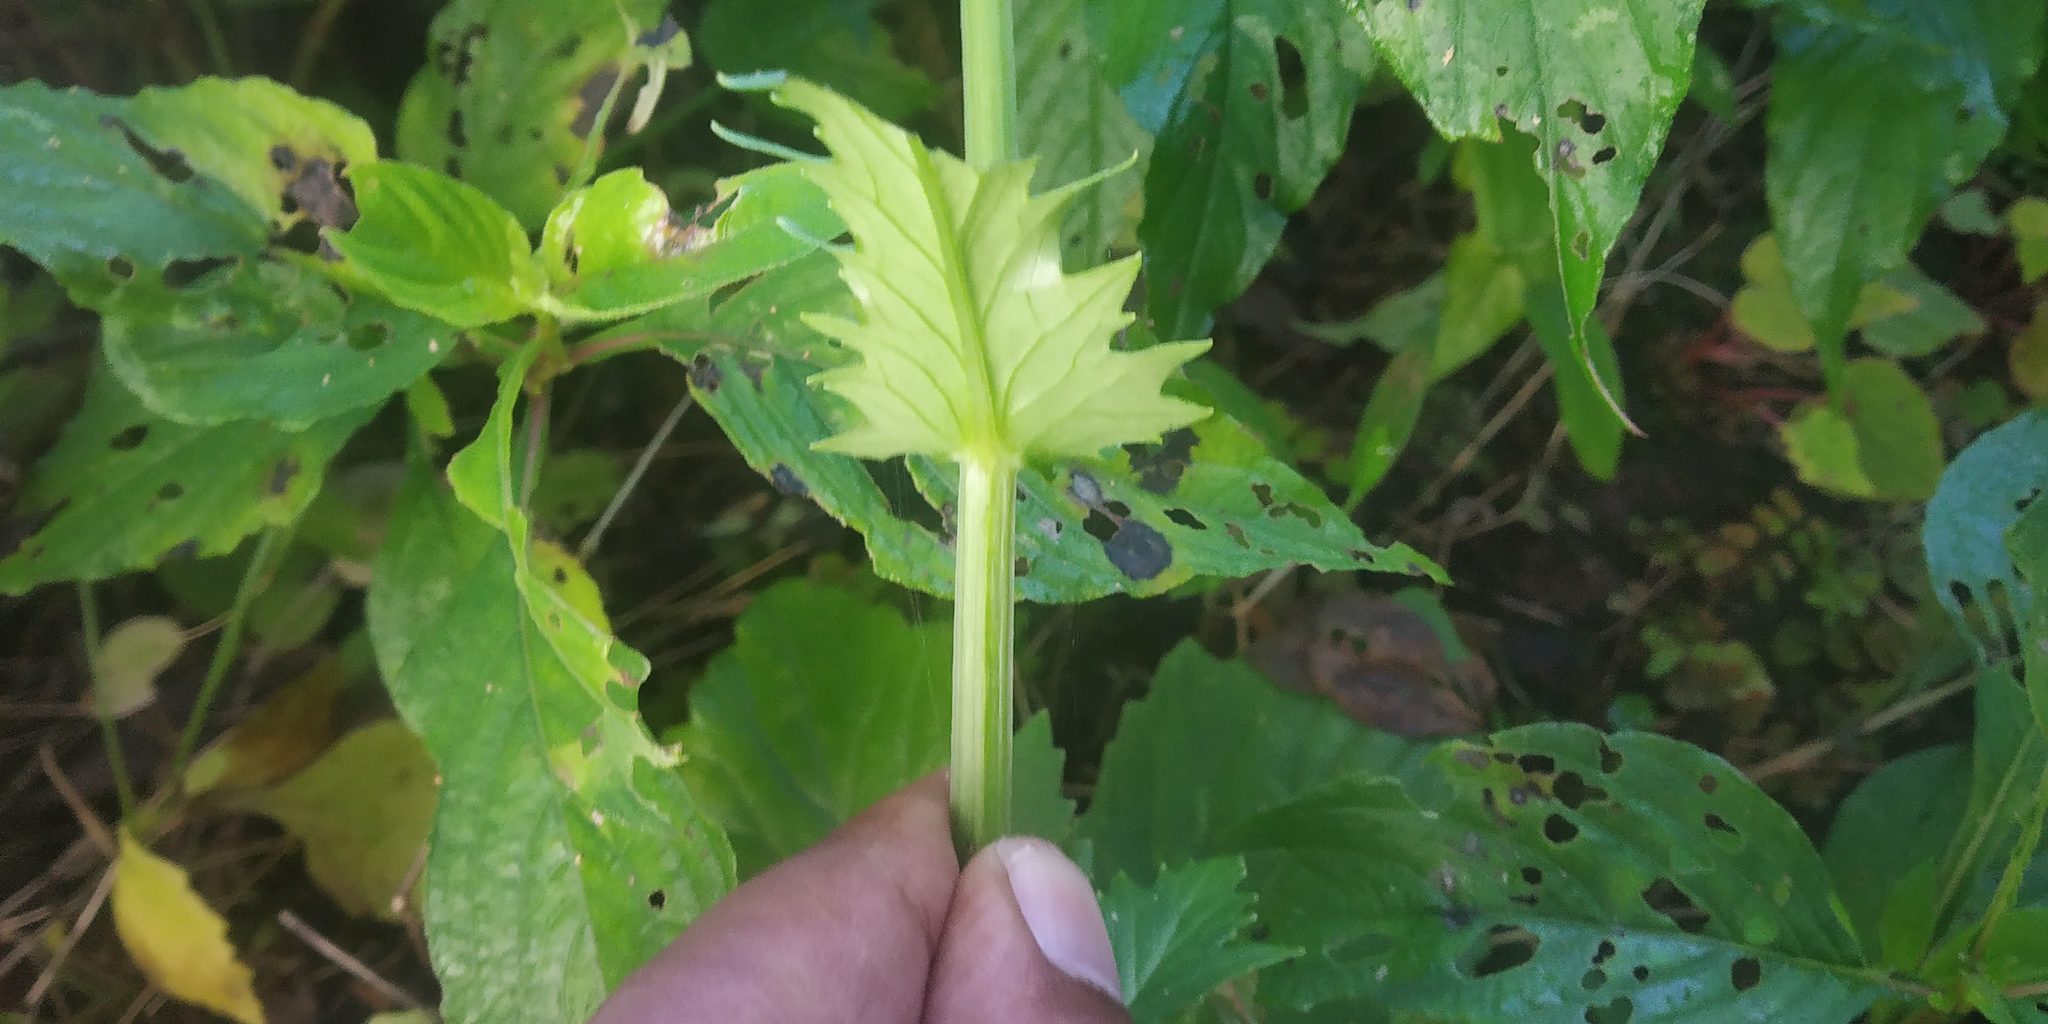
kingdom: Plantae
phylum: Tracheophyta
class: Magnoliopsida
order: Asterales
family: Asteraceae
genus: Gynura
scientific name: Gynura bicolor
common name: Red-vegetable
